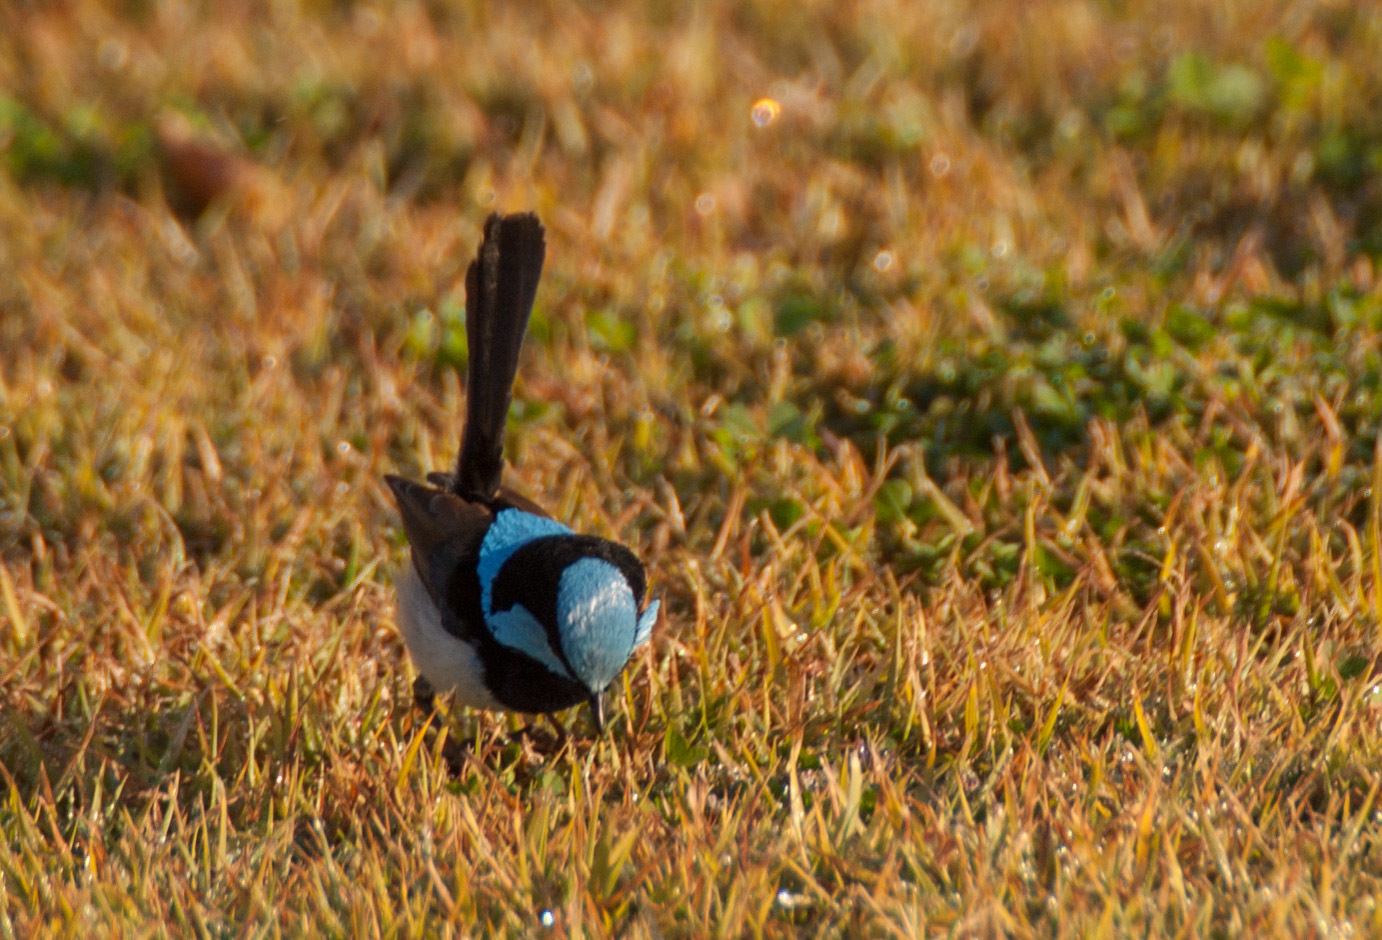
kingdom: Animalia
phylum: Chordata
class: Aves
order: Passeriformes
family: Maluridae
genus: Malurus
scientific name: Malurus cyaneus
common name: Superb fairywren
